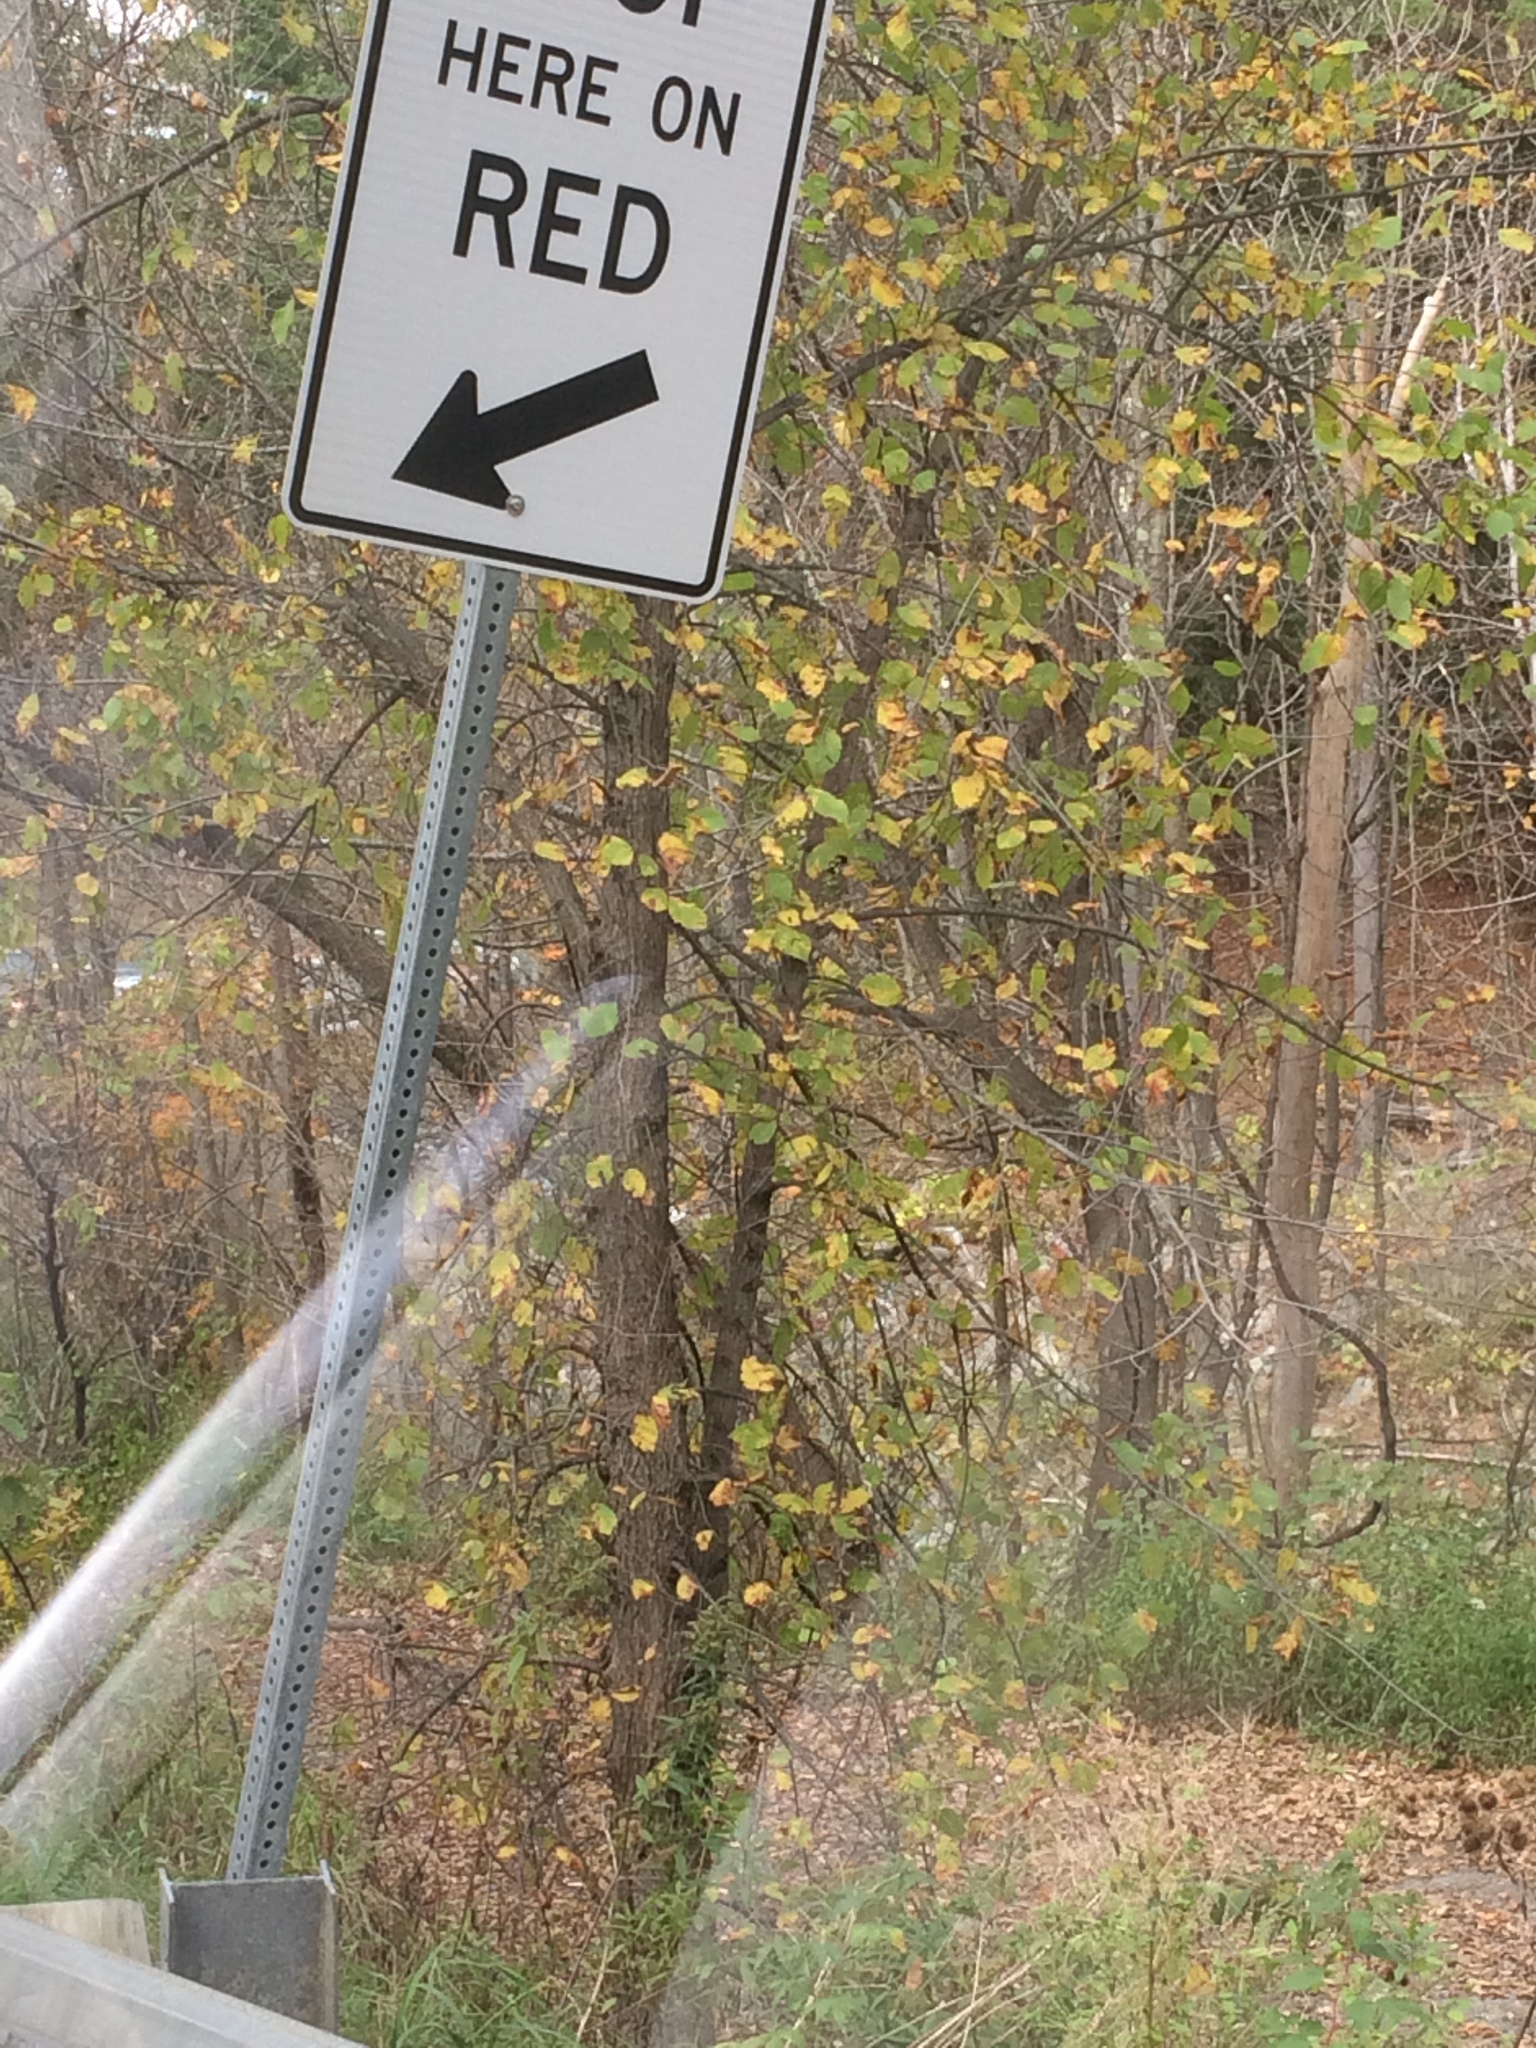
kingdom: Plantae
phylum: Tracheophyta
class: Magnoliopsida
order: Rosales
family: Ulmaceae
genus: Ulmus
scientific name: Ulmus americana
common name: American elm
